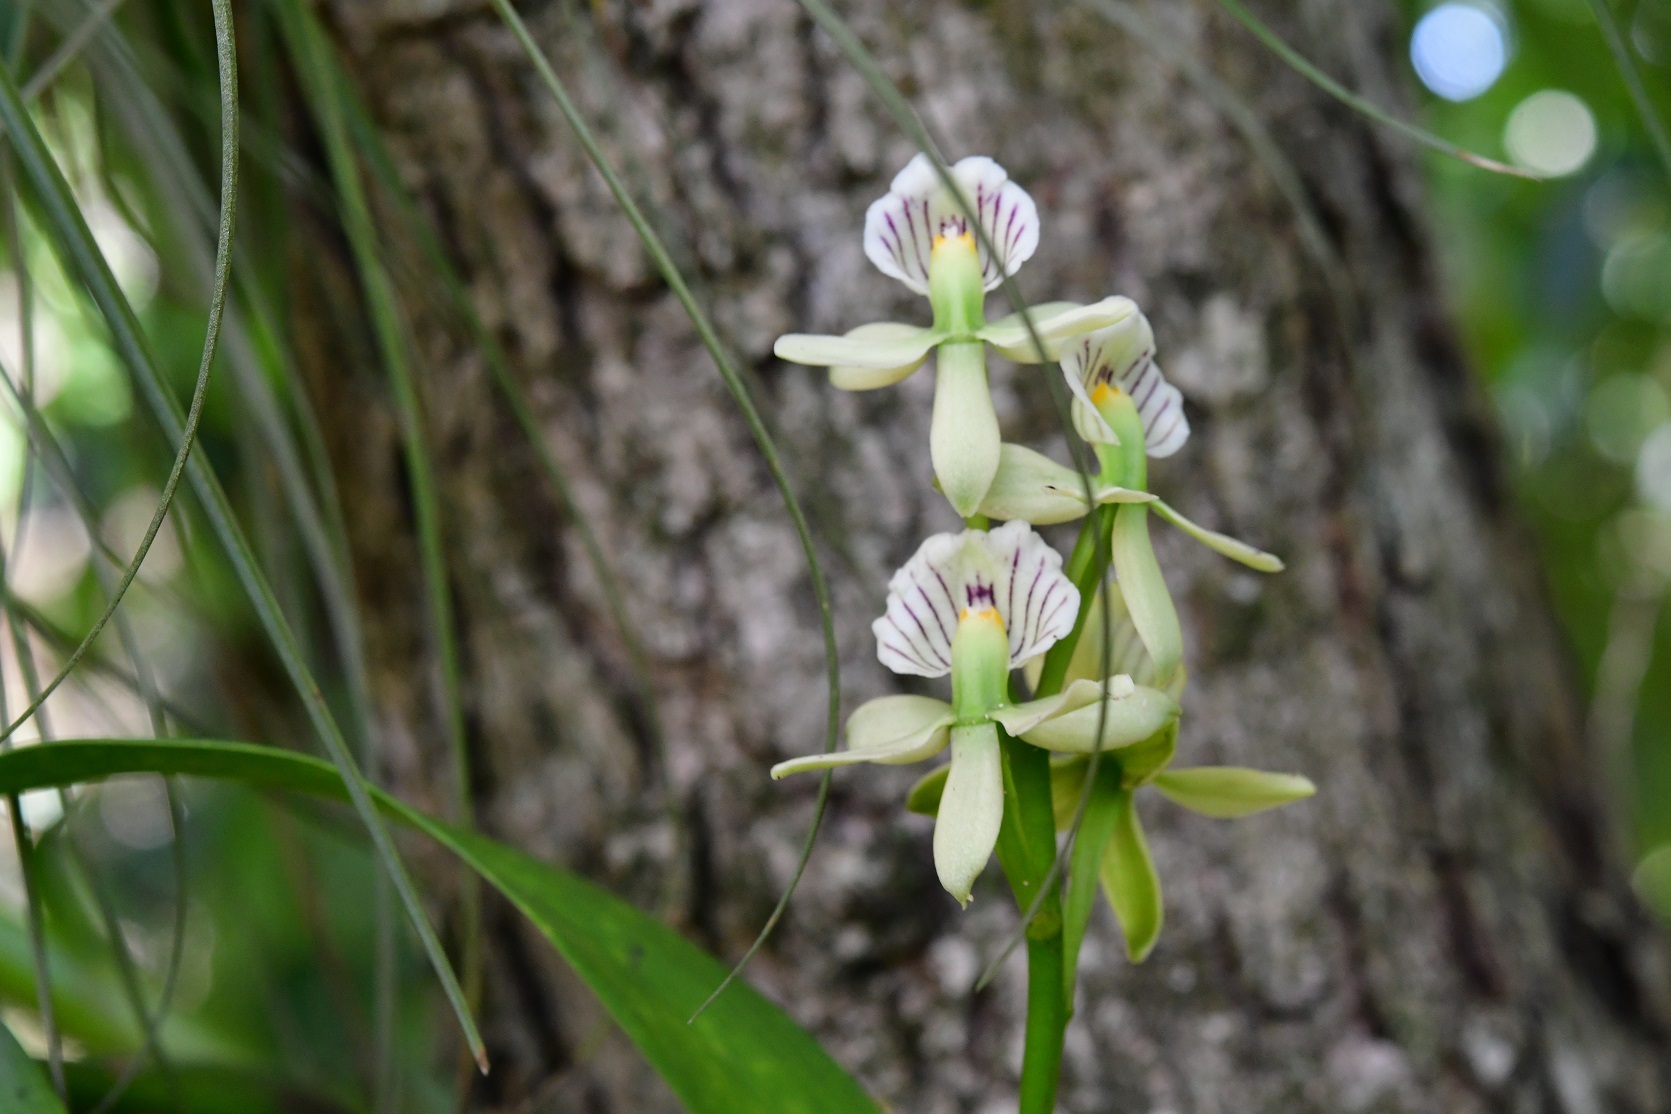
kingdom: Plantae
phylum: Tracheophyta
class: Liliopsida
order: Asparagales
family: Orchidaceae
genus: Prosthechea
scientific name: Prosthechea radiata
